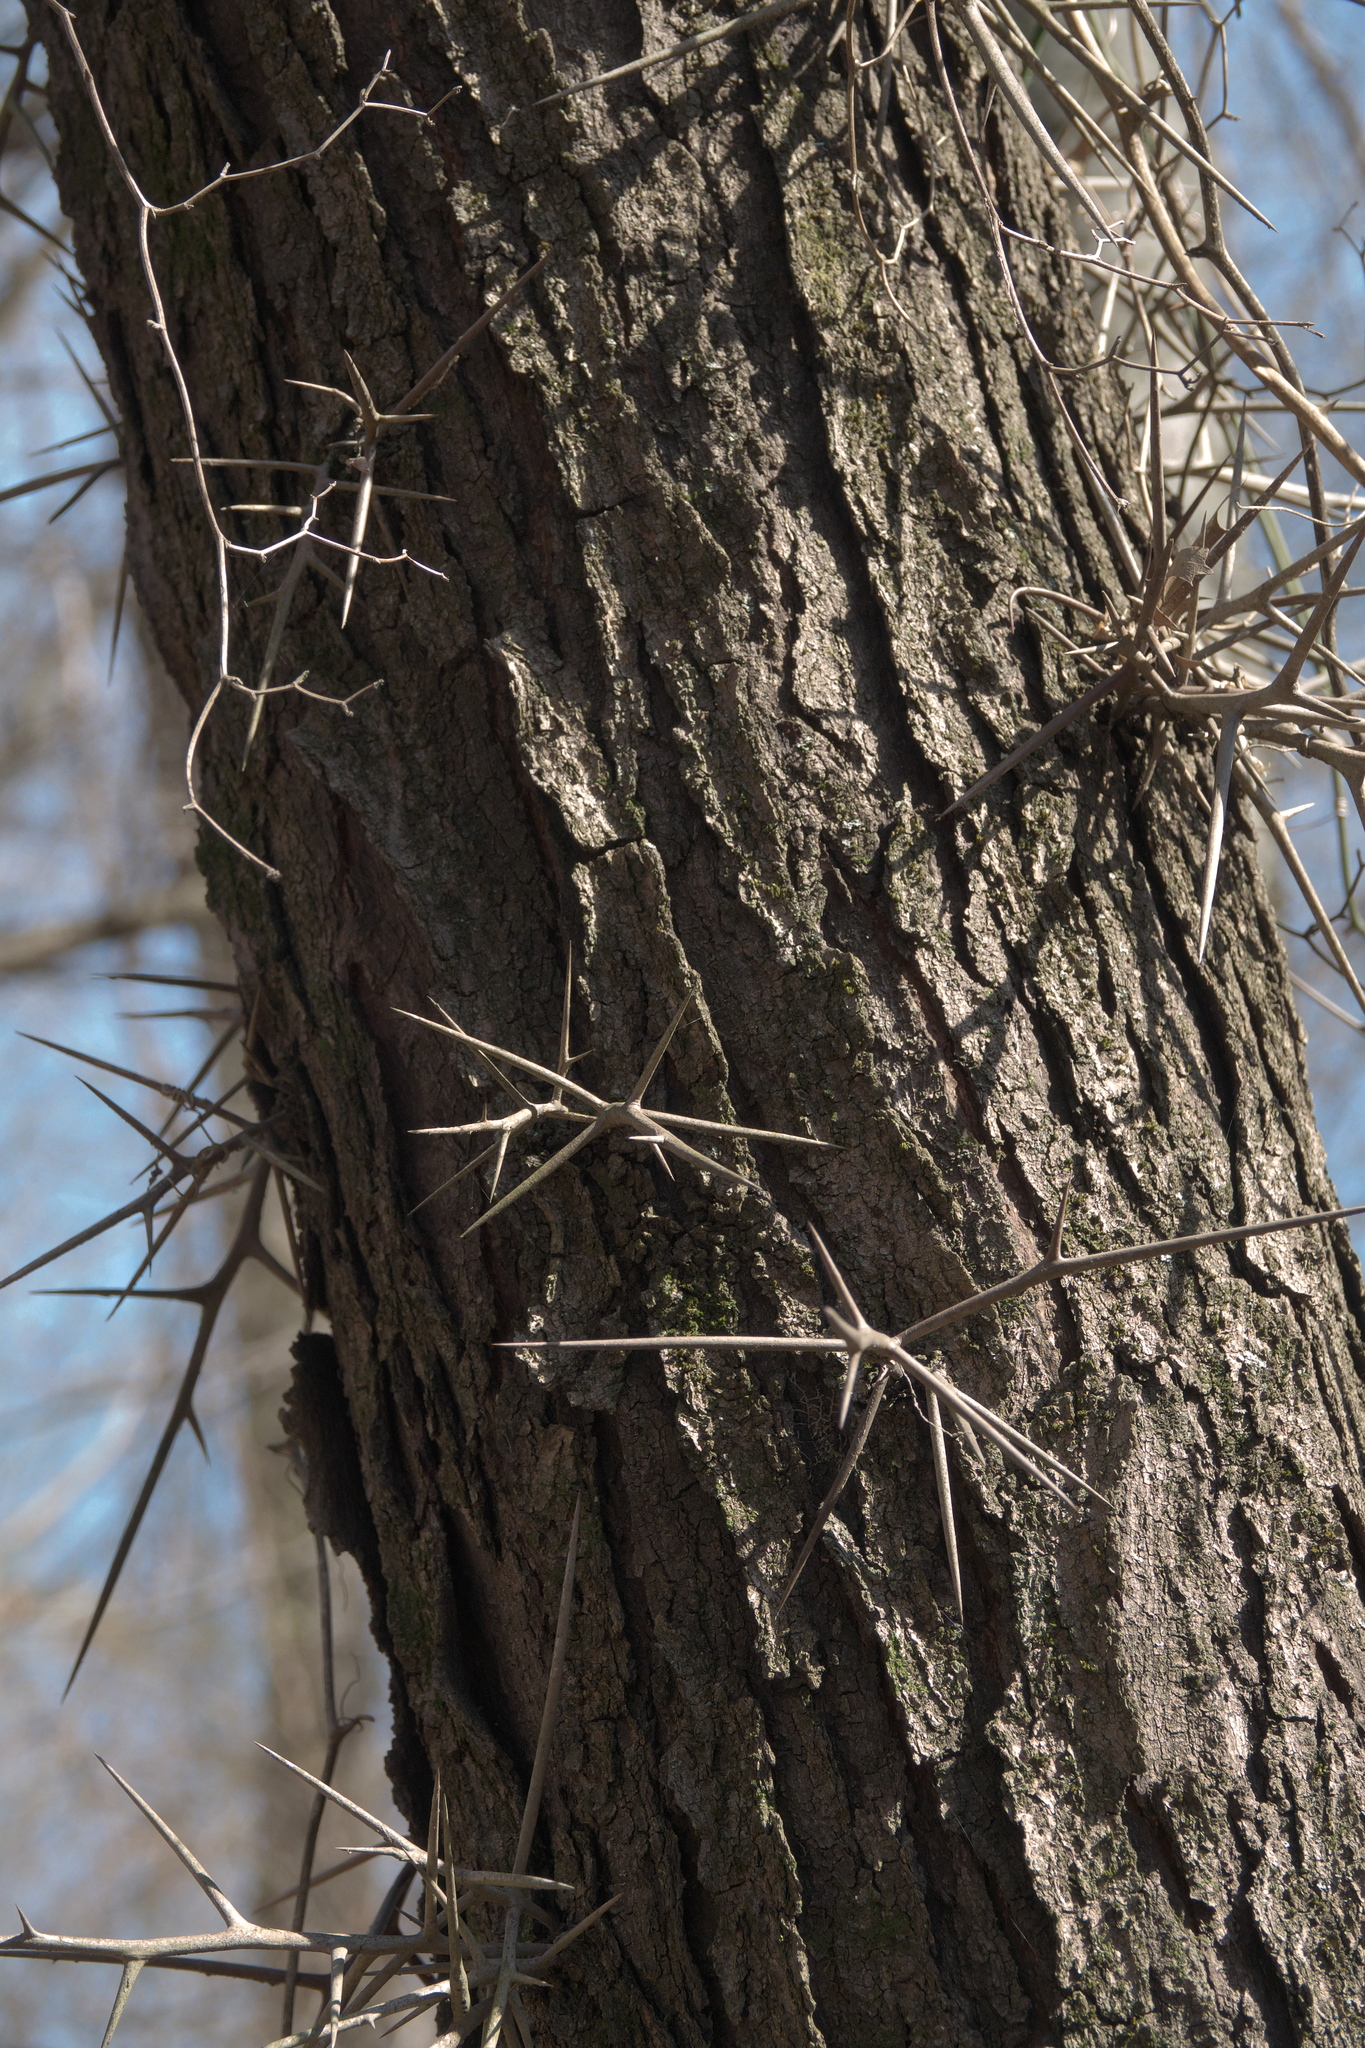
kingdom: Plantae
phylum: Tracheophyta
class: Magnoliopsida
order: Fabales
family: Fabaceae
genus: Gleditsia
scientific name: Gleditsia triacanthos
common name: Common honeylocust
